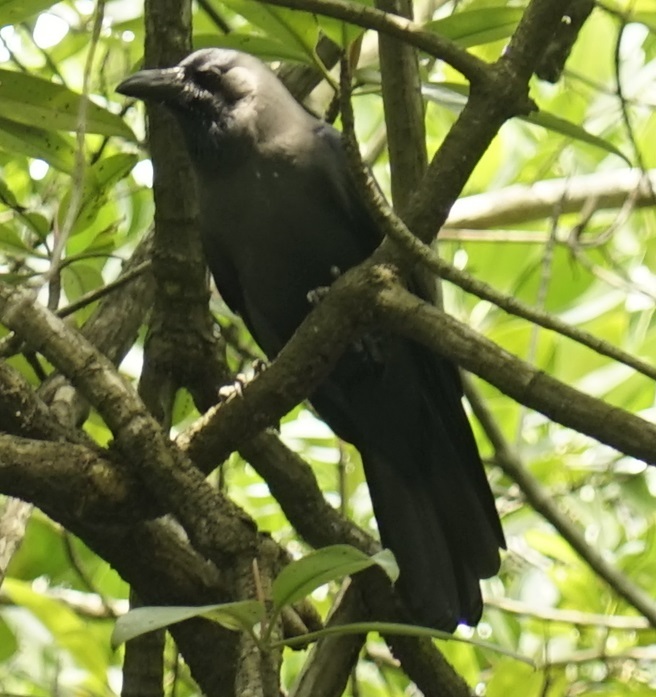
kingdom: Animalia
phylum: Chordata
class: Aves
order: Passeriformes
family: Corvidae
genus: Corvus
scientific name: Corvus splendens
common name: House crow
